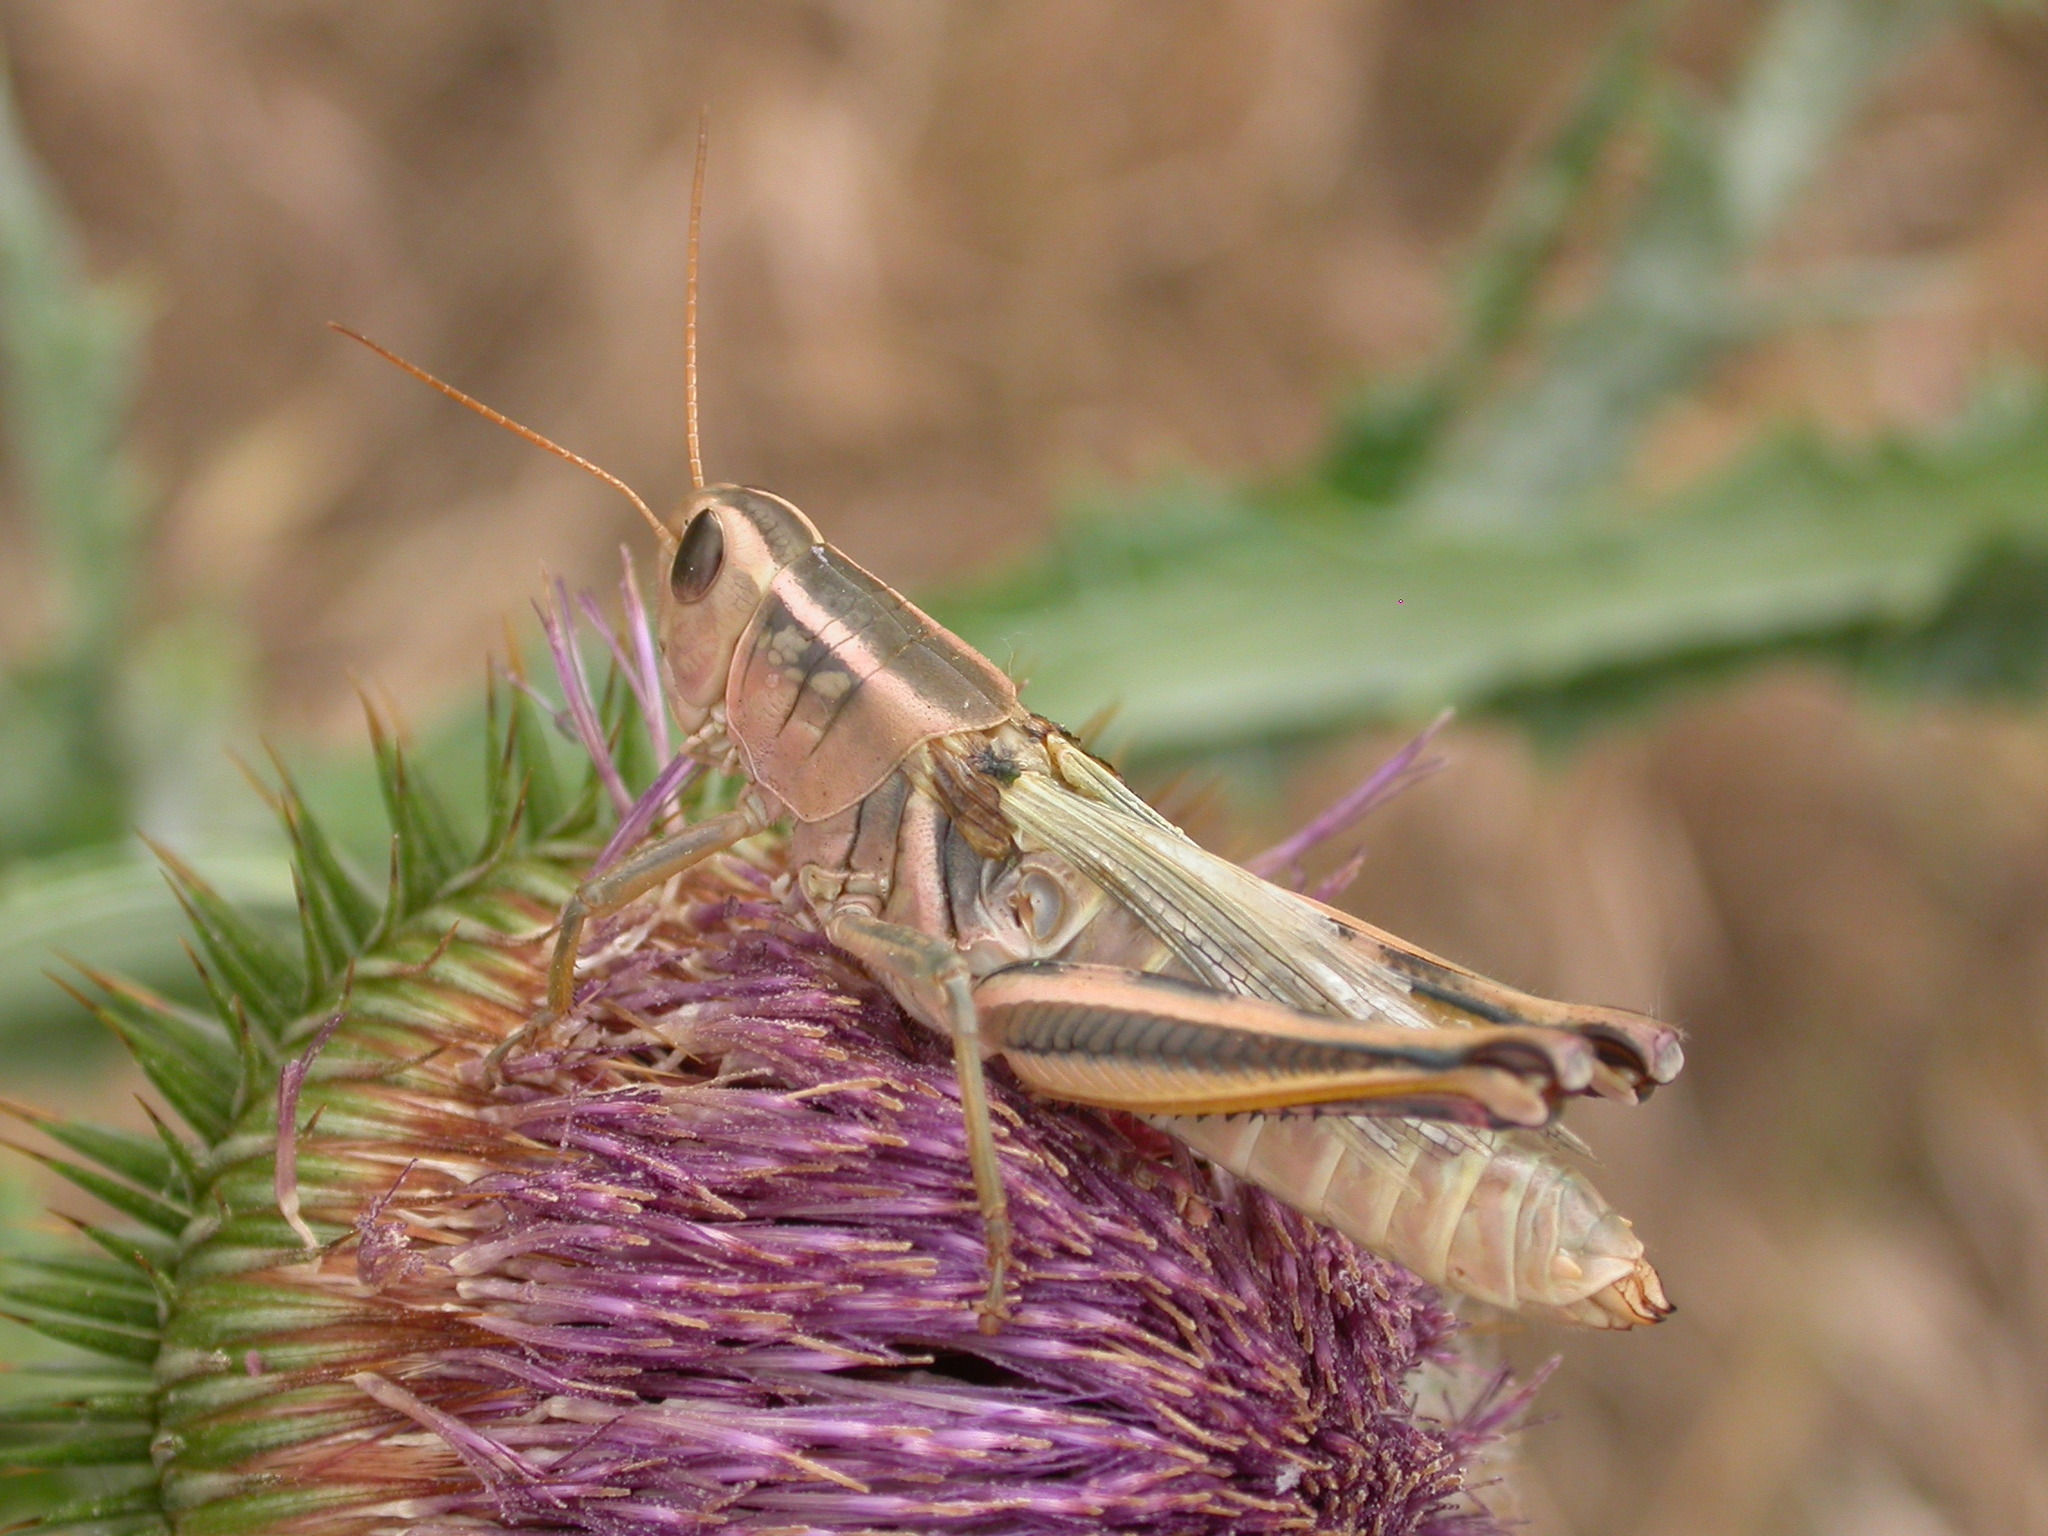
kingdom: Animalia
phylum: Arthropoda
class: Insecta
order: Orthoptera
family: Acrididae
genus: Melanoplus
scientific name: Melanoplus bivittatus
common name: Two-striped grasshopper
